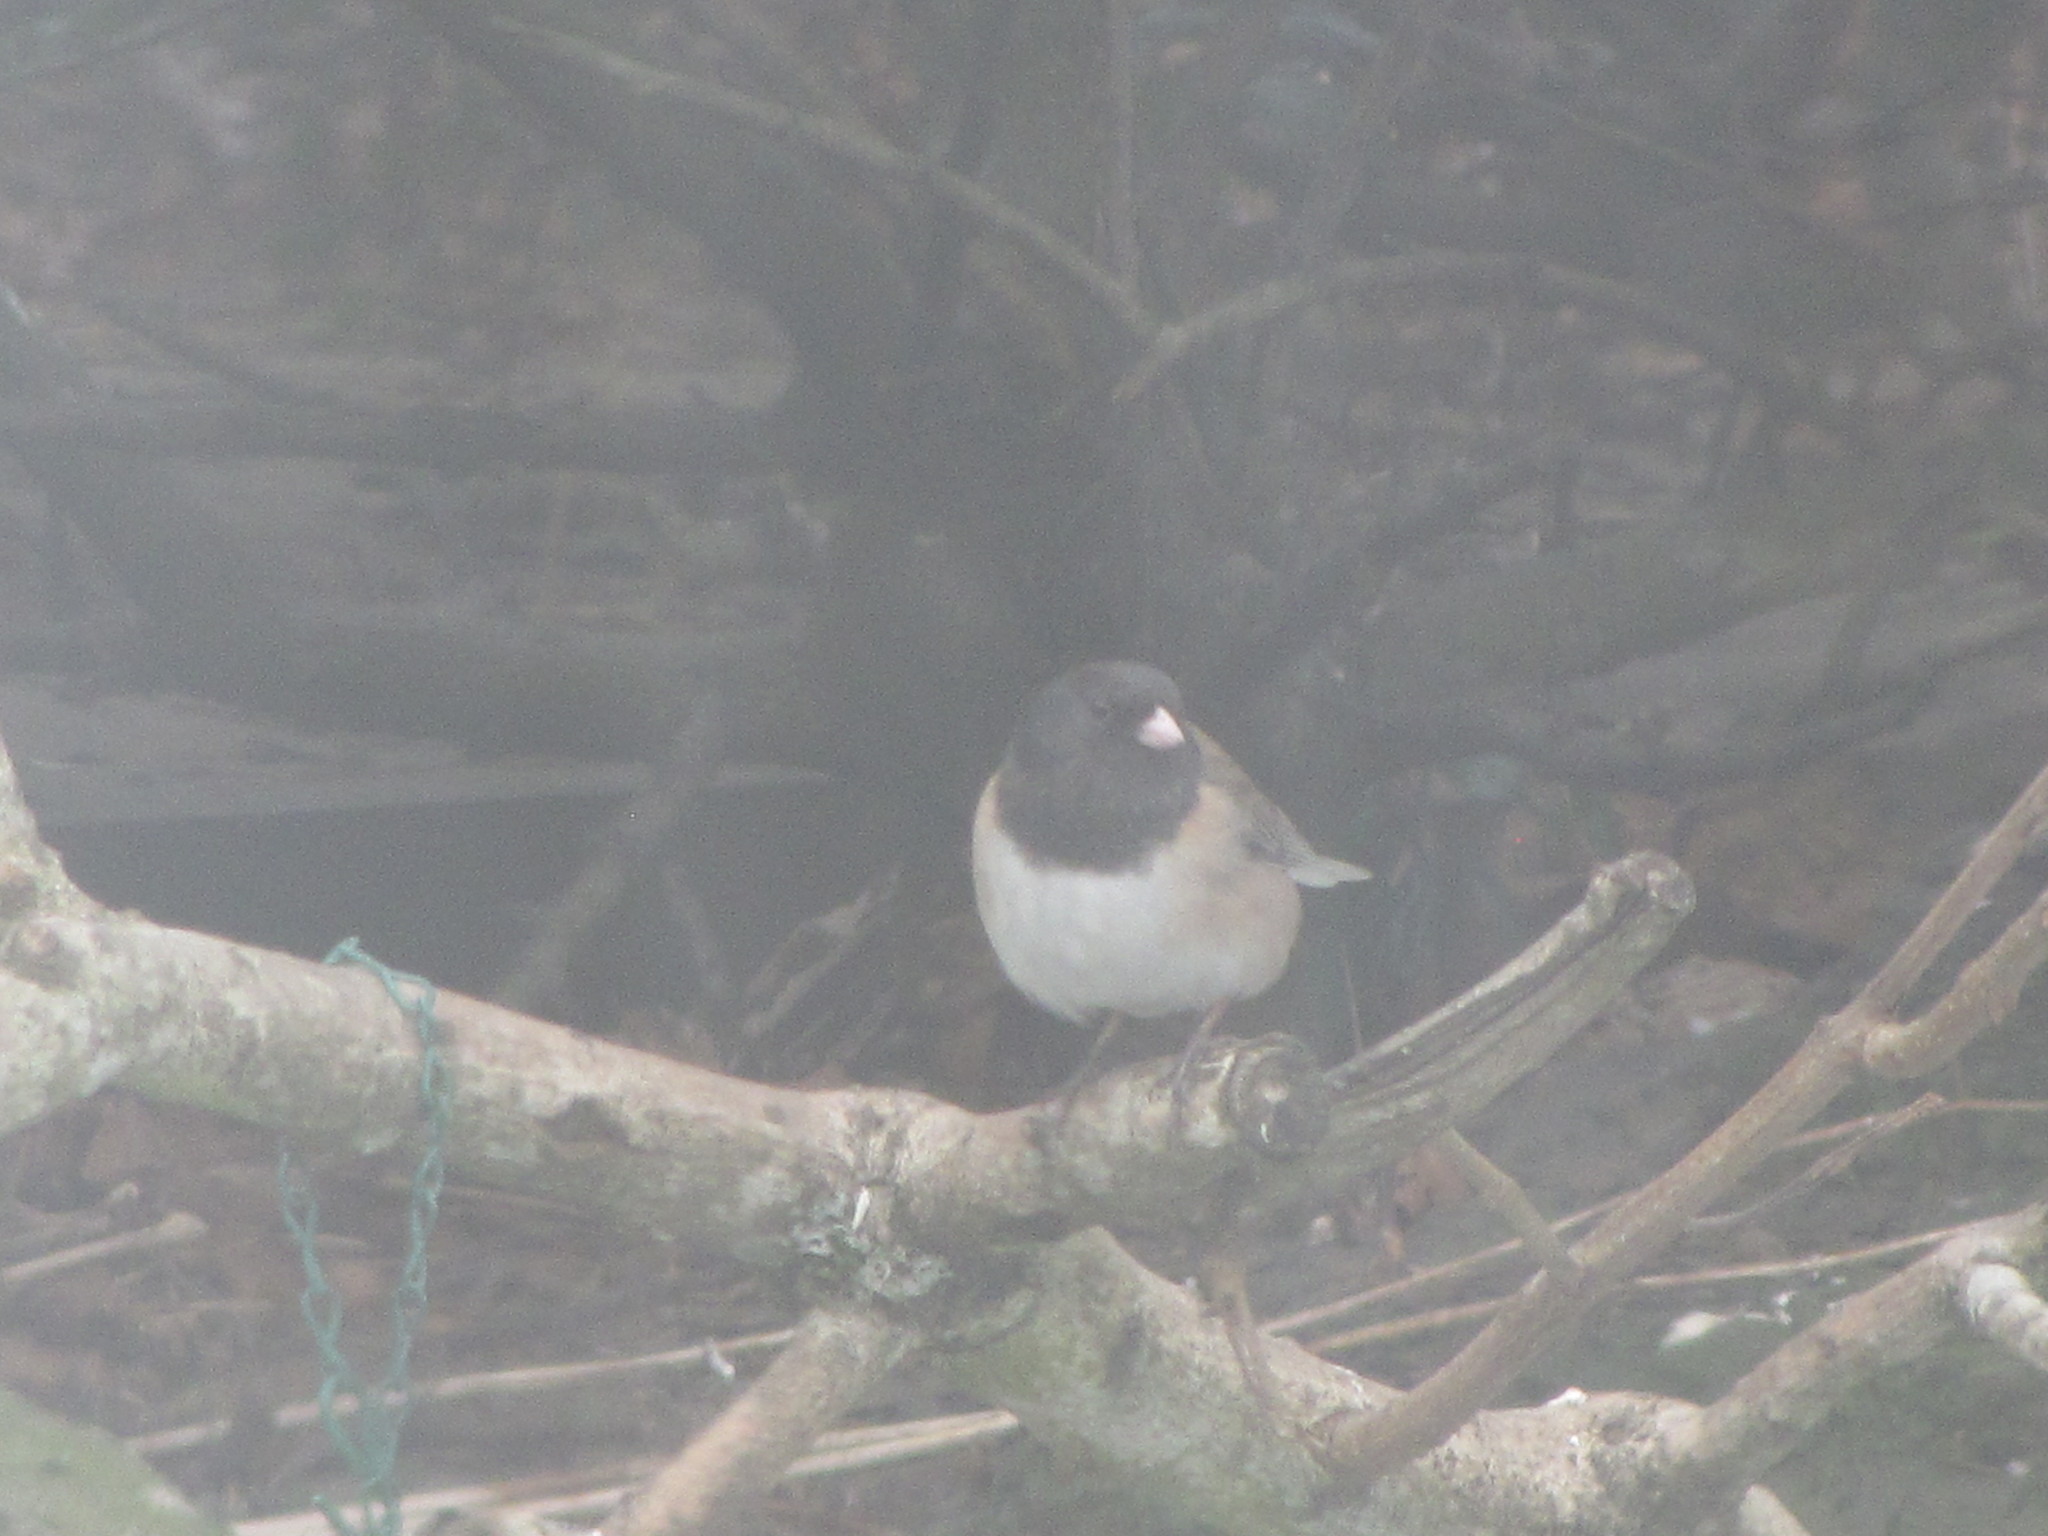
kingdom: Animalia
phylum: Chordata
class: Aves
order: Passeriformes
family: Passerellidae
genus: Junco
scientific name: Junco hyemalis
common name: Dark-eyed junco
